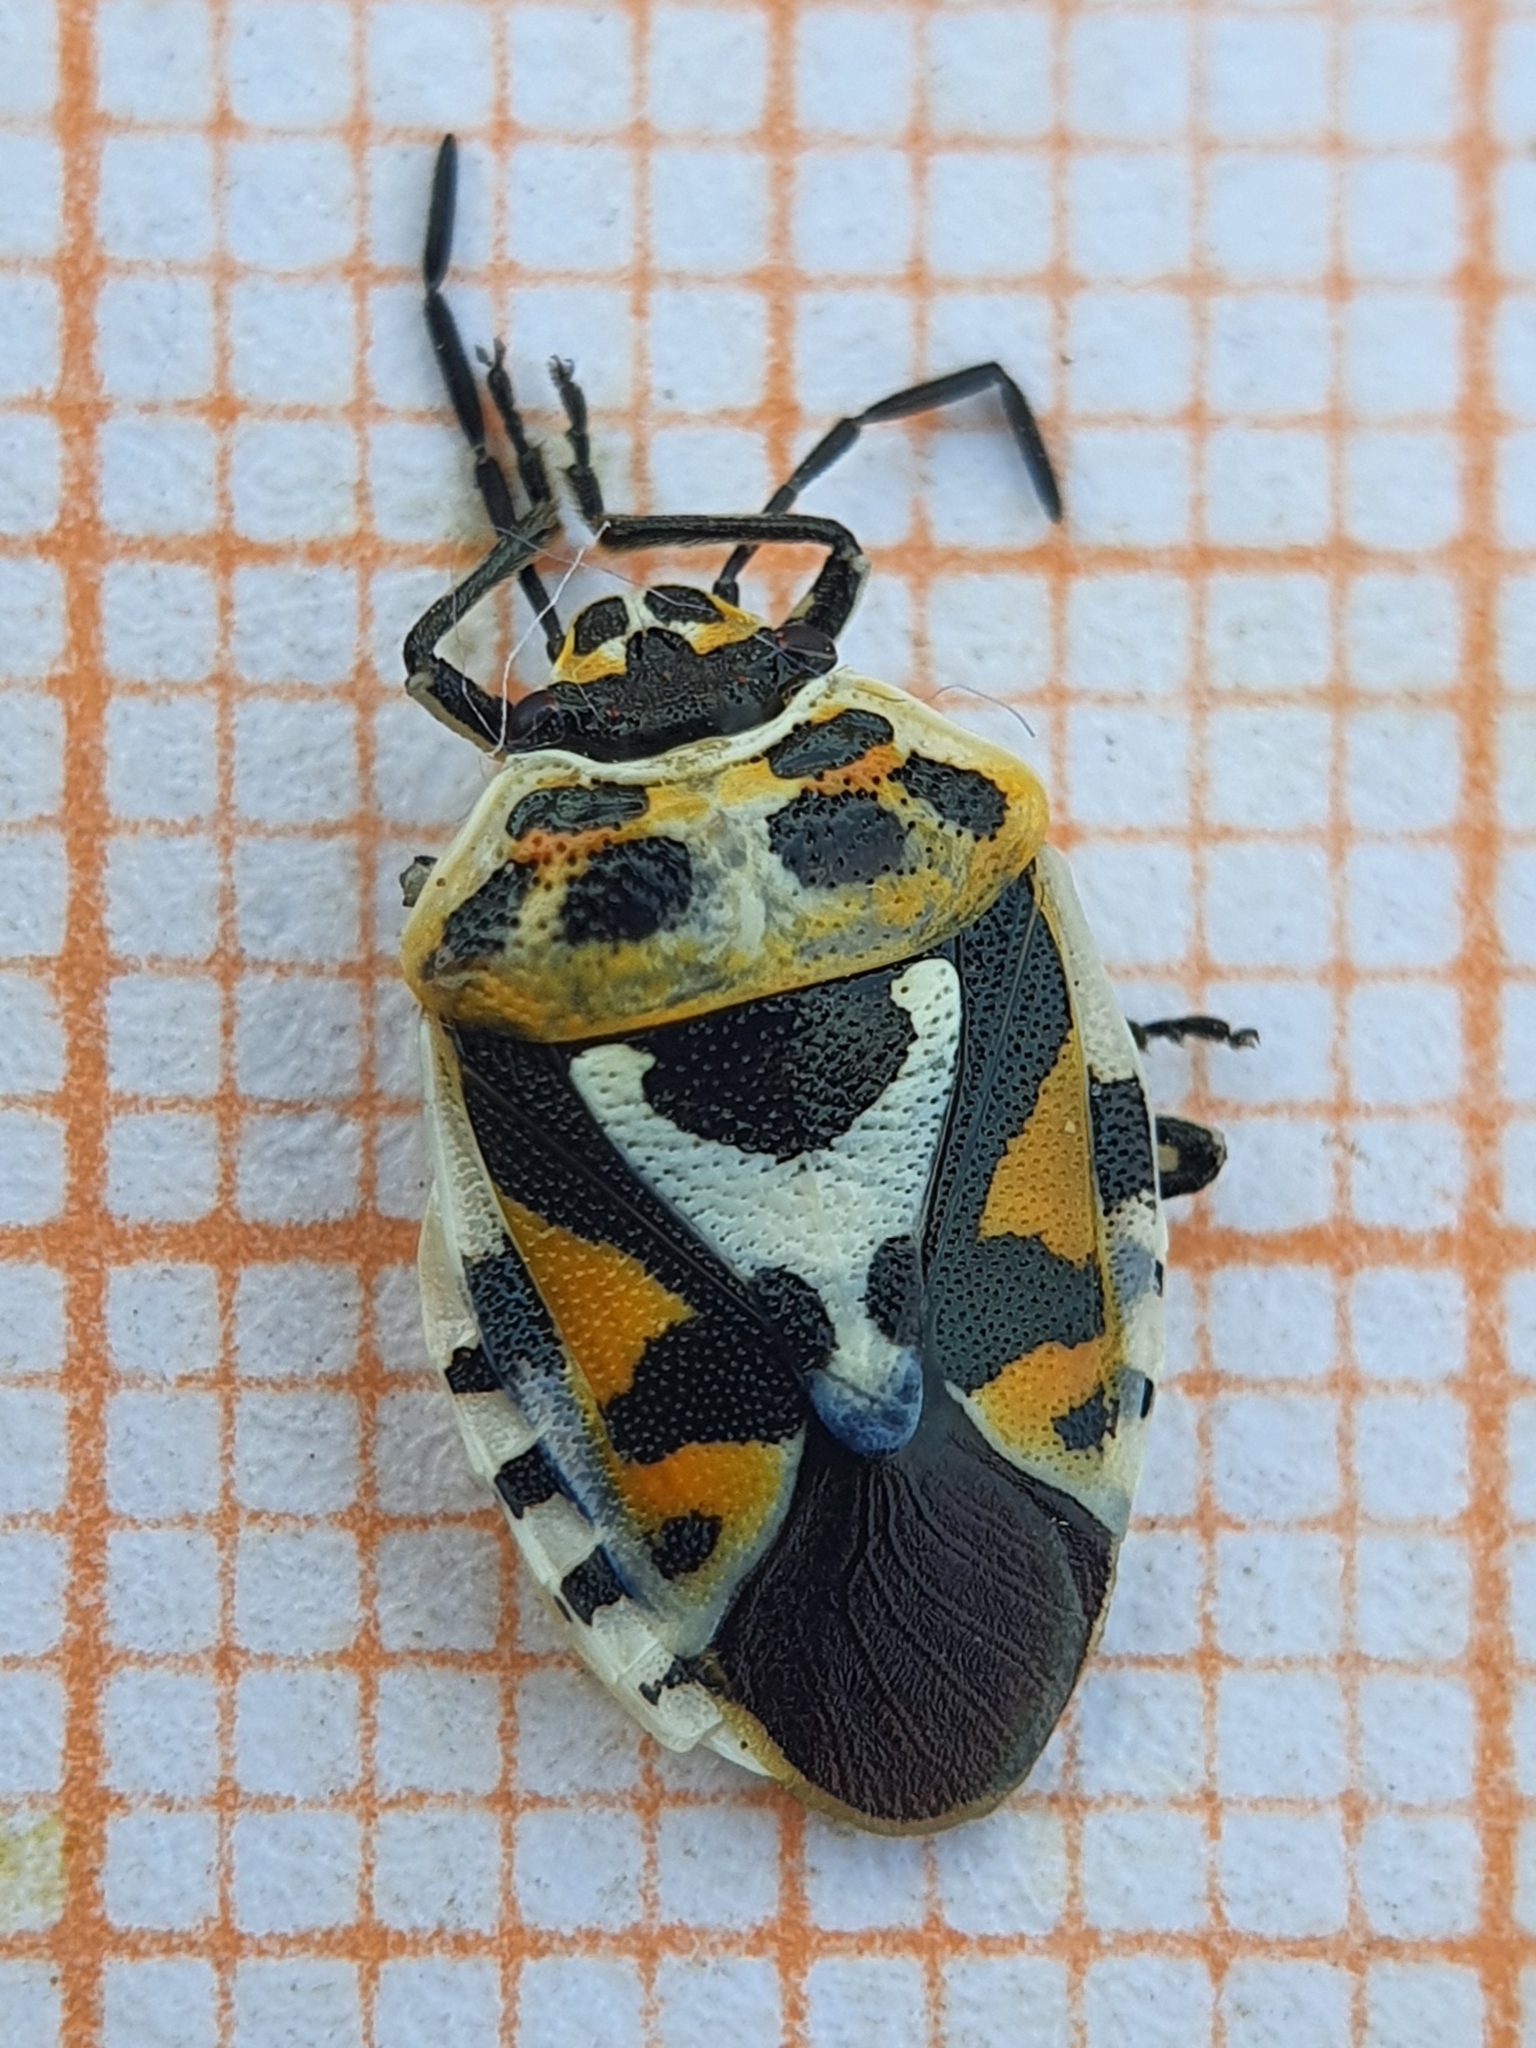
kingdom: Animalia
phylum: Arthropoda
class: Insecta
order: Hemiptera
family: Pentatomidae
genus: Eurydema
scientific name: Eurydema ornata
